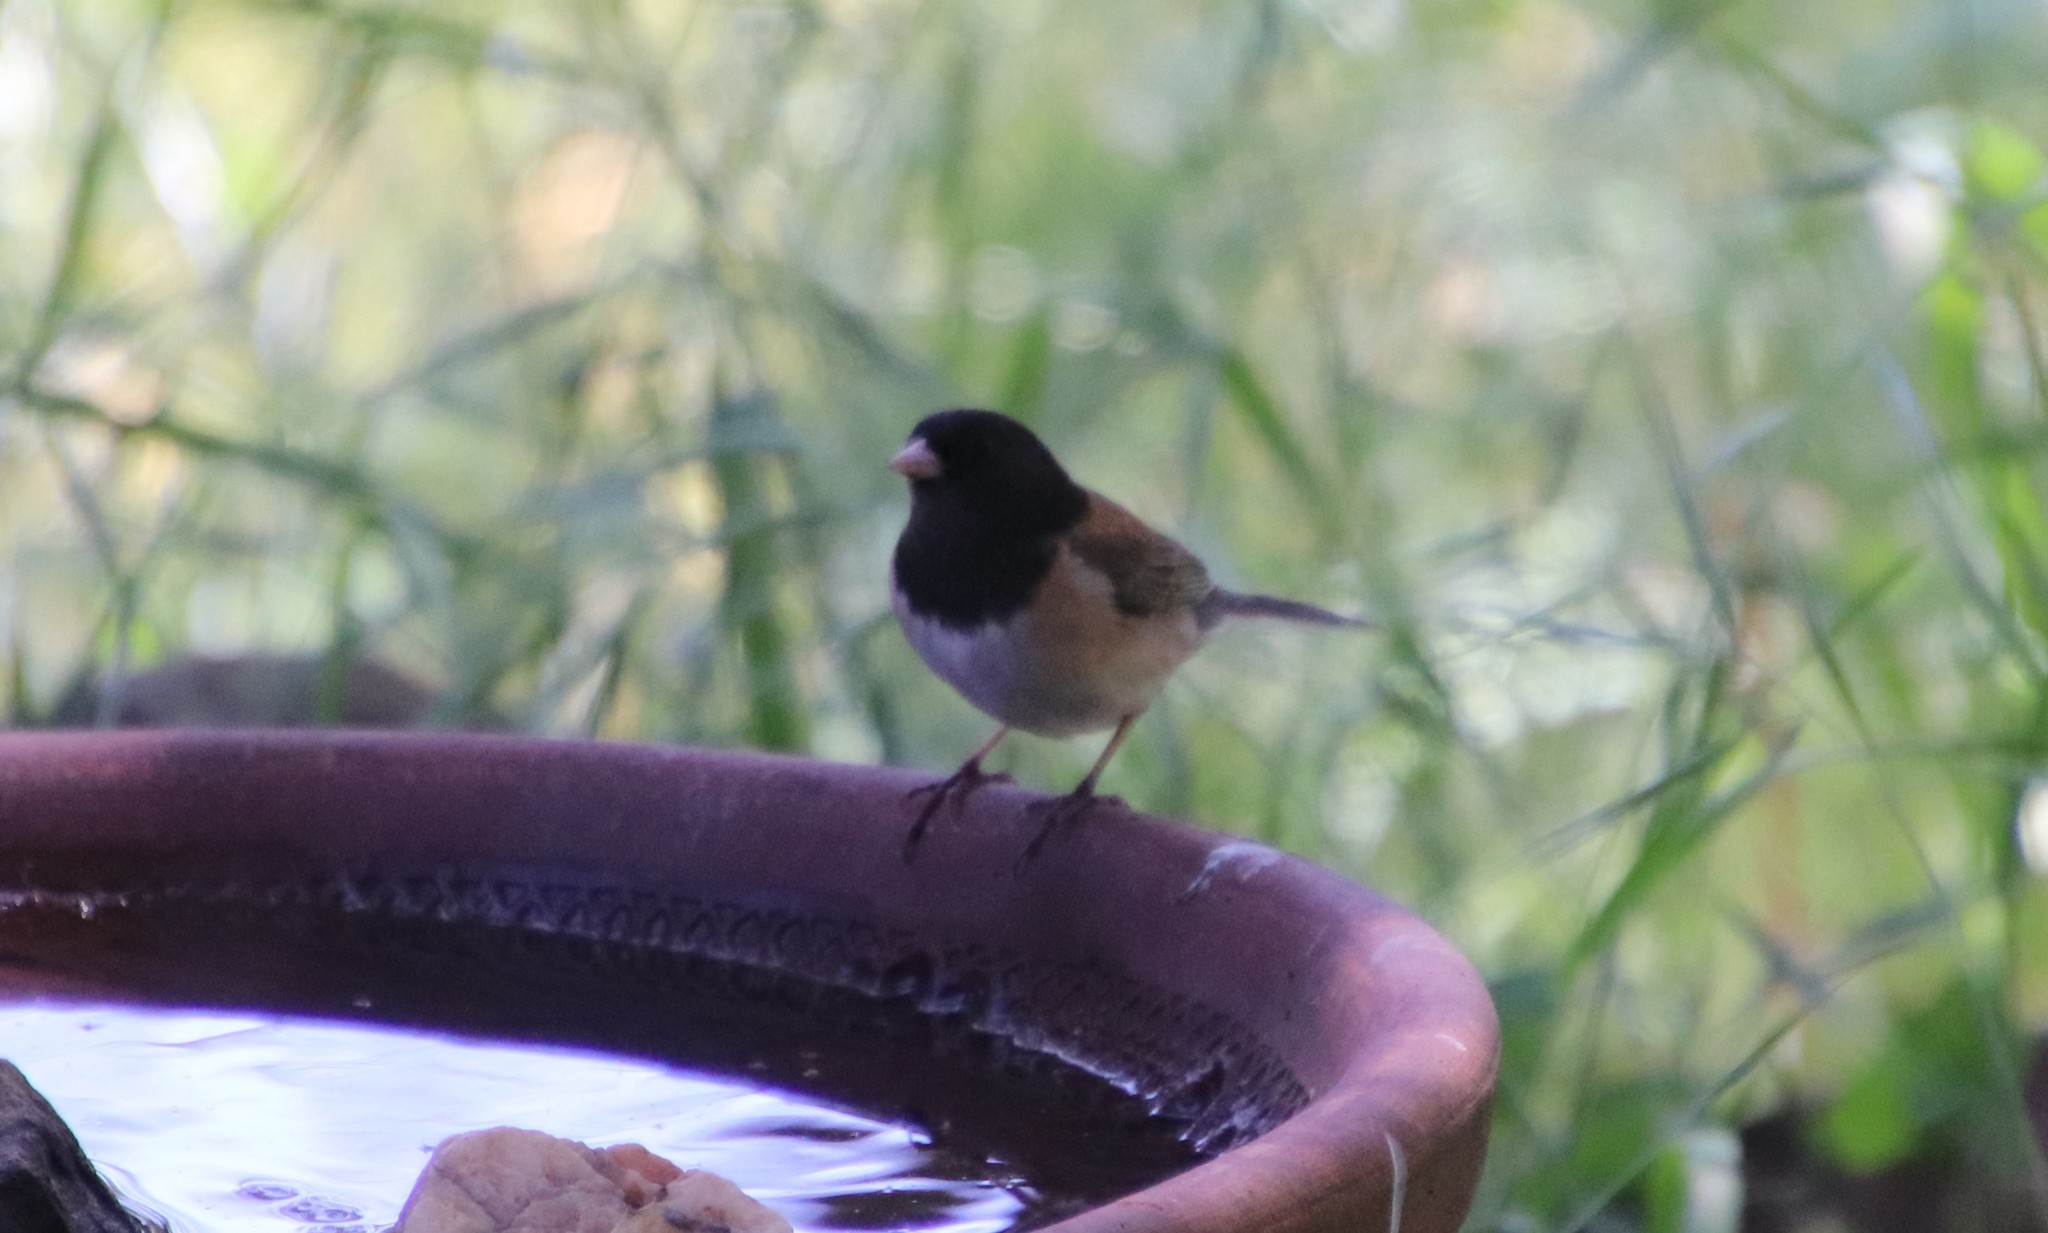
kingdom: Animalia
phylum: Chordata
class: Aves
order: Passeriformes
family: Passerellidae
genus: Junco
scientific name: Junco hyemalis
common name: Dark-eyed junco
